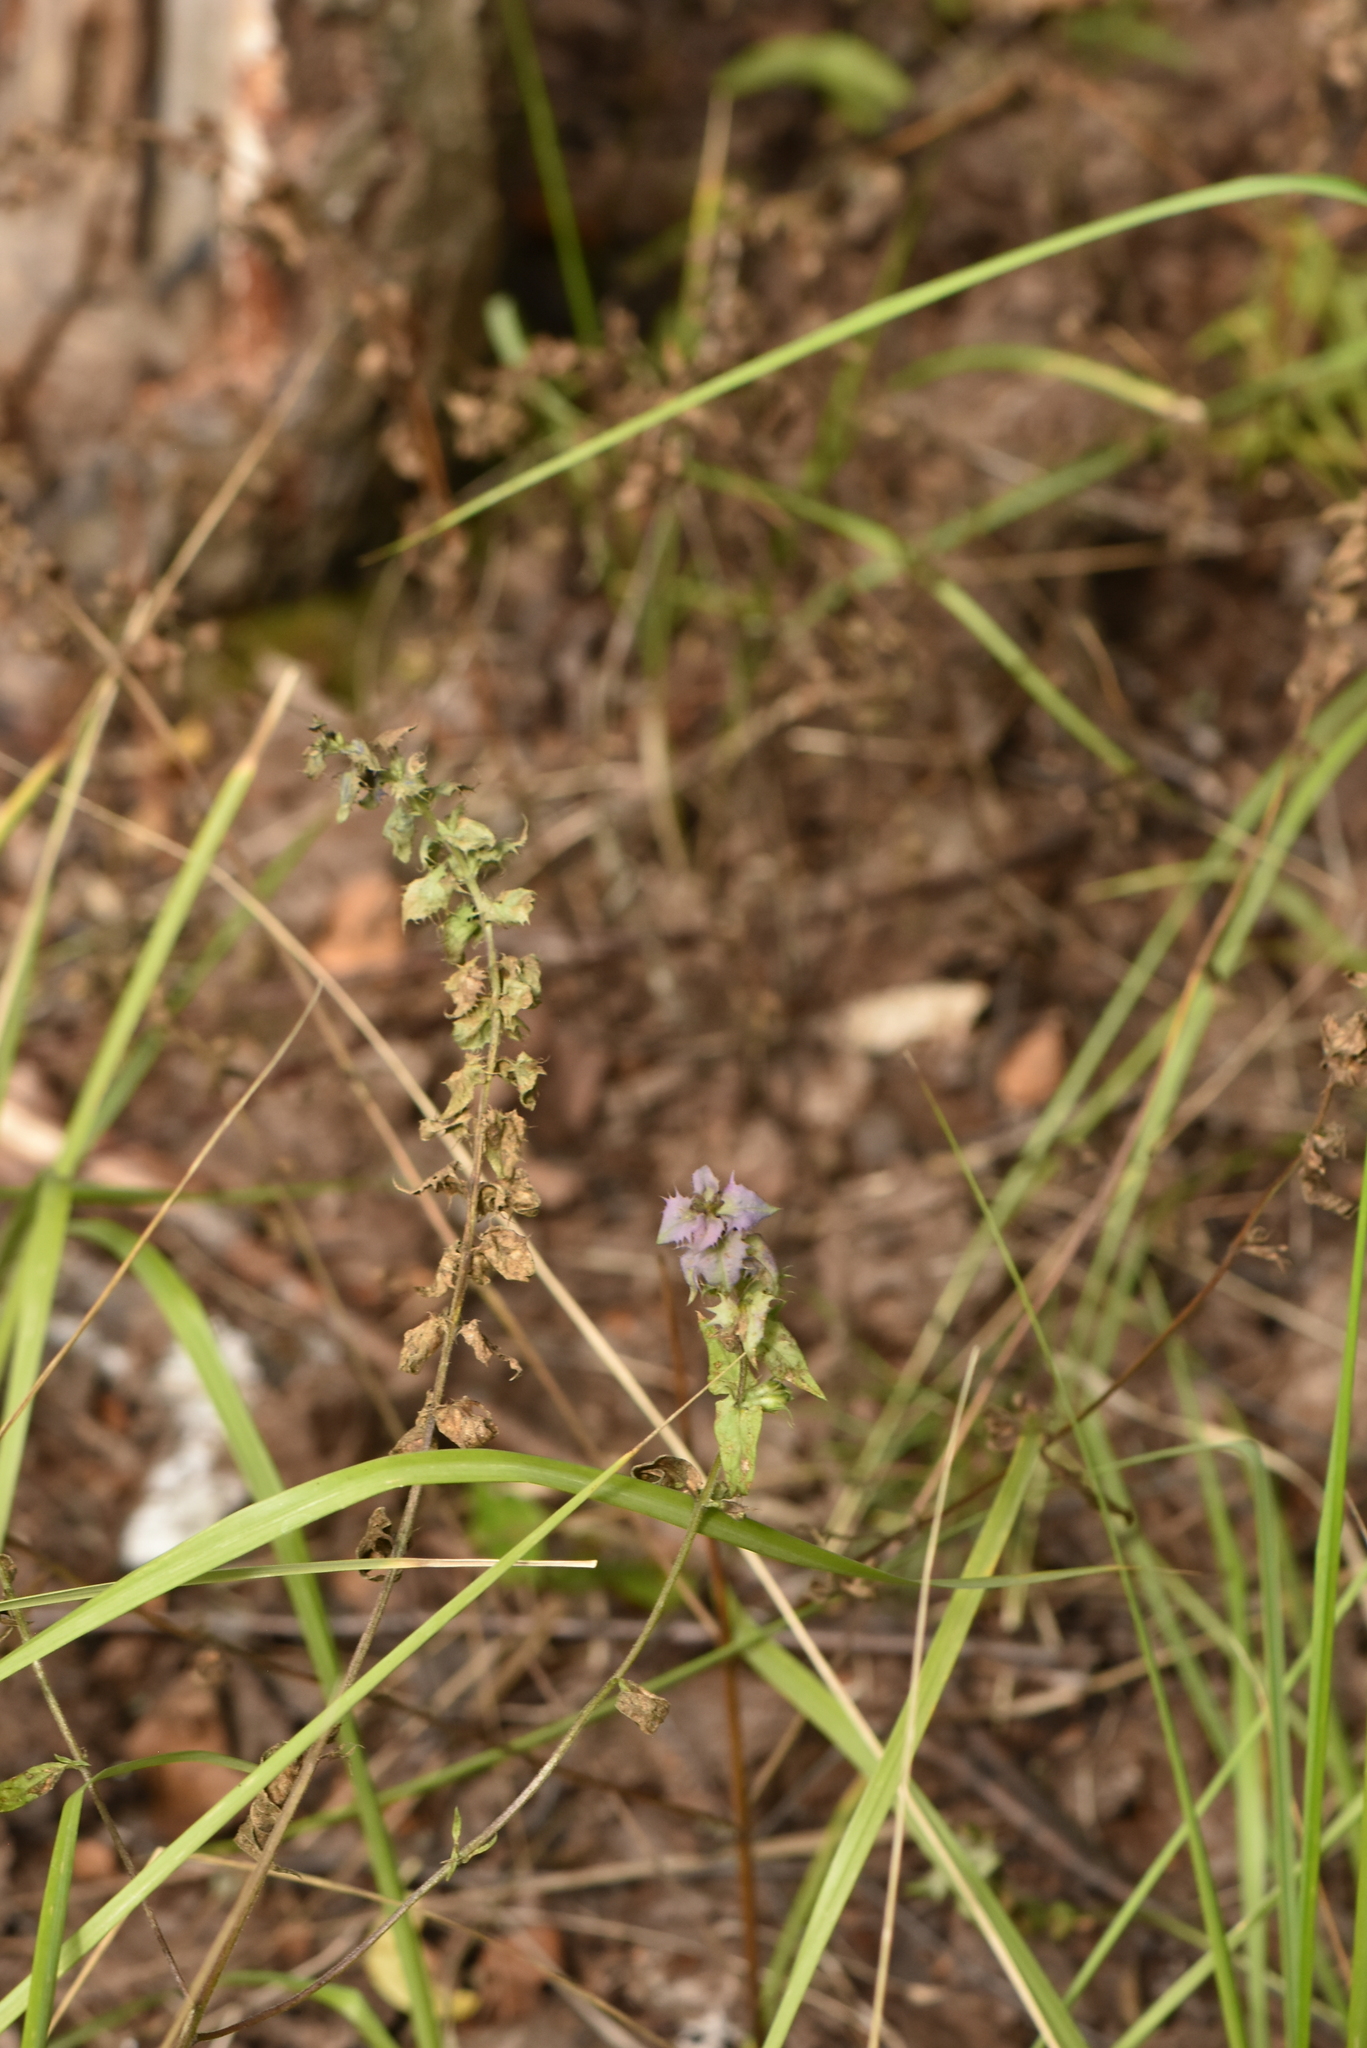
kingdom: Plantae
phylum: Tracheophyta
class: Magnoliopsida
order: Lamiales
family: Orobanchaceae
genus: Melampyrum
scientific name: Melampyrum nemorosum
